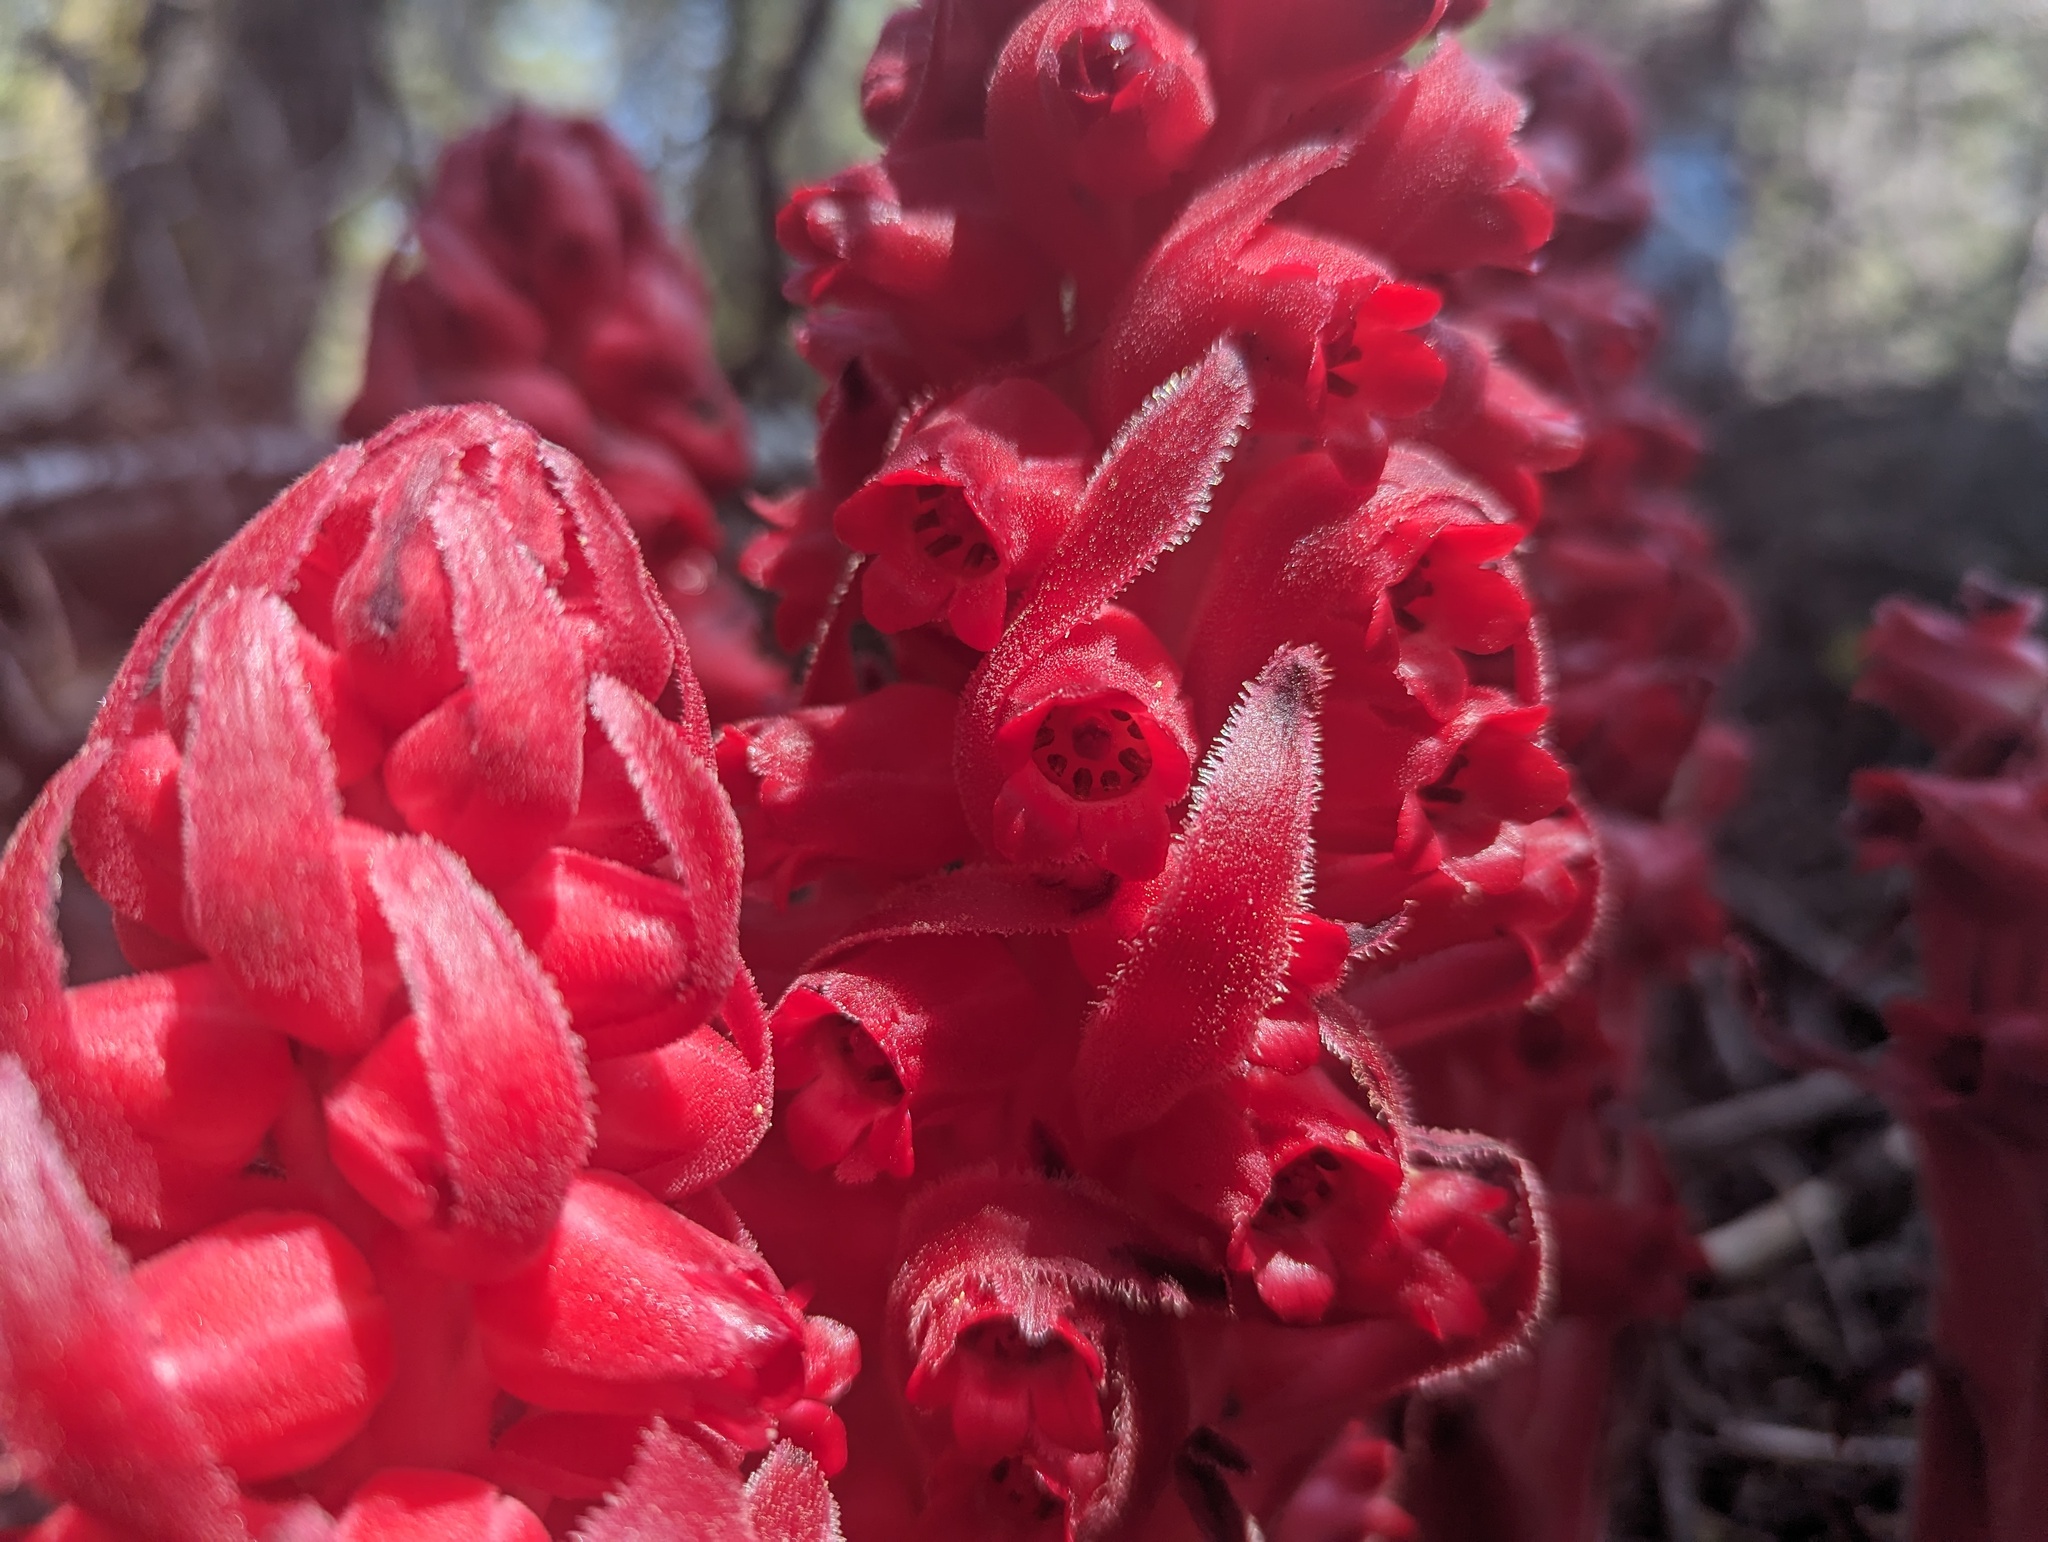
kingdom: Plantae
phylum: Tracheophyta
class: Magnoliopsida
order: Ericales
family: Ericaceae
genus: Sarcodes
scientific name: Sarcodes sanguinea
